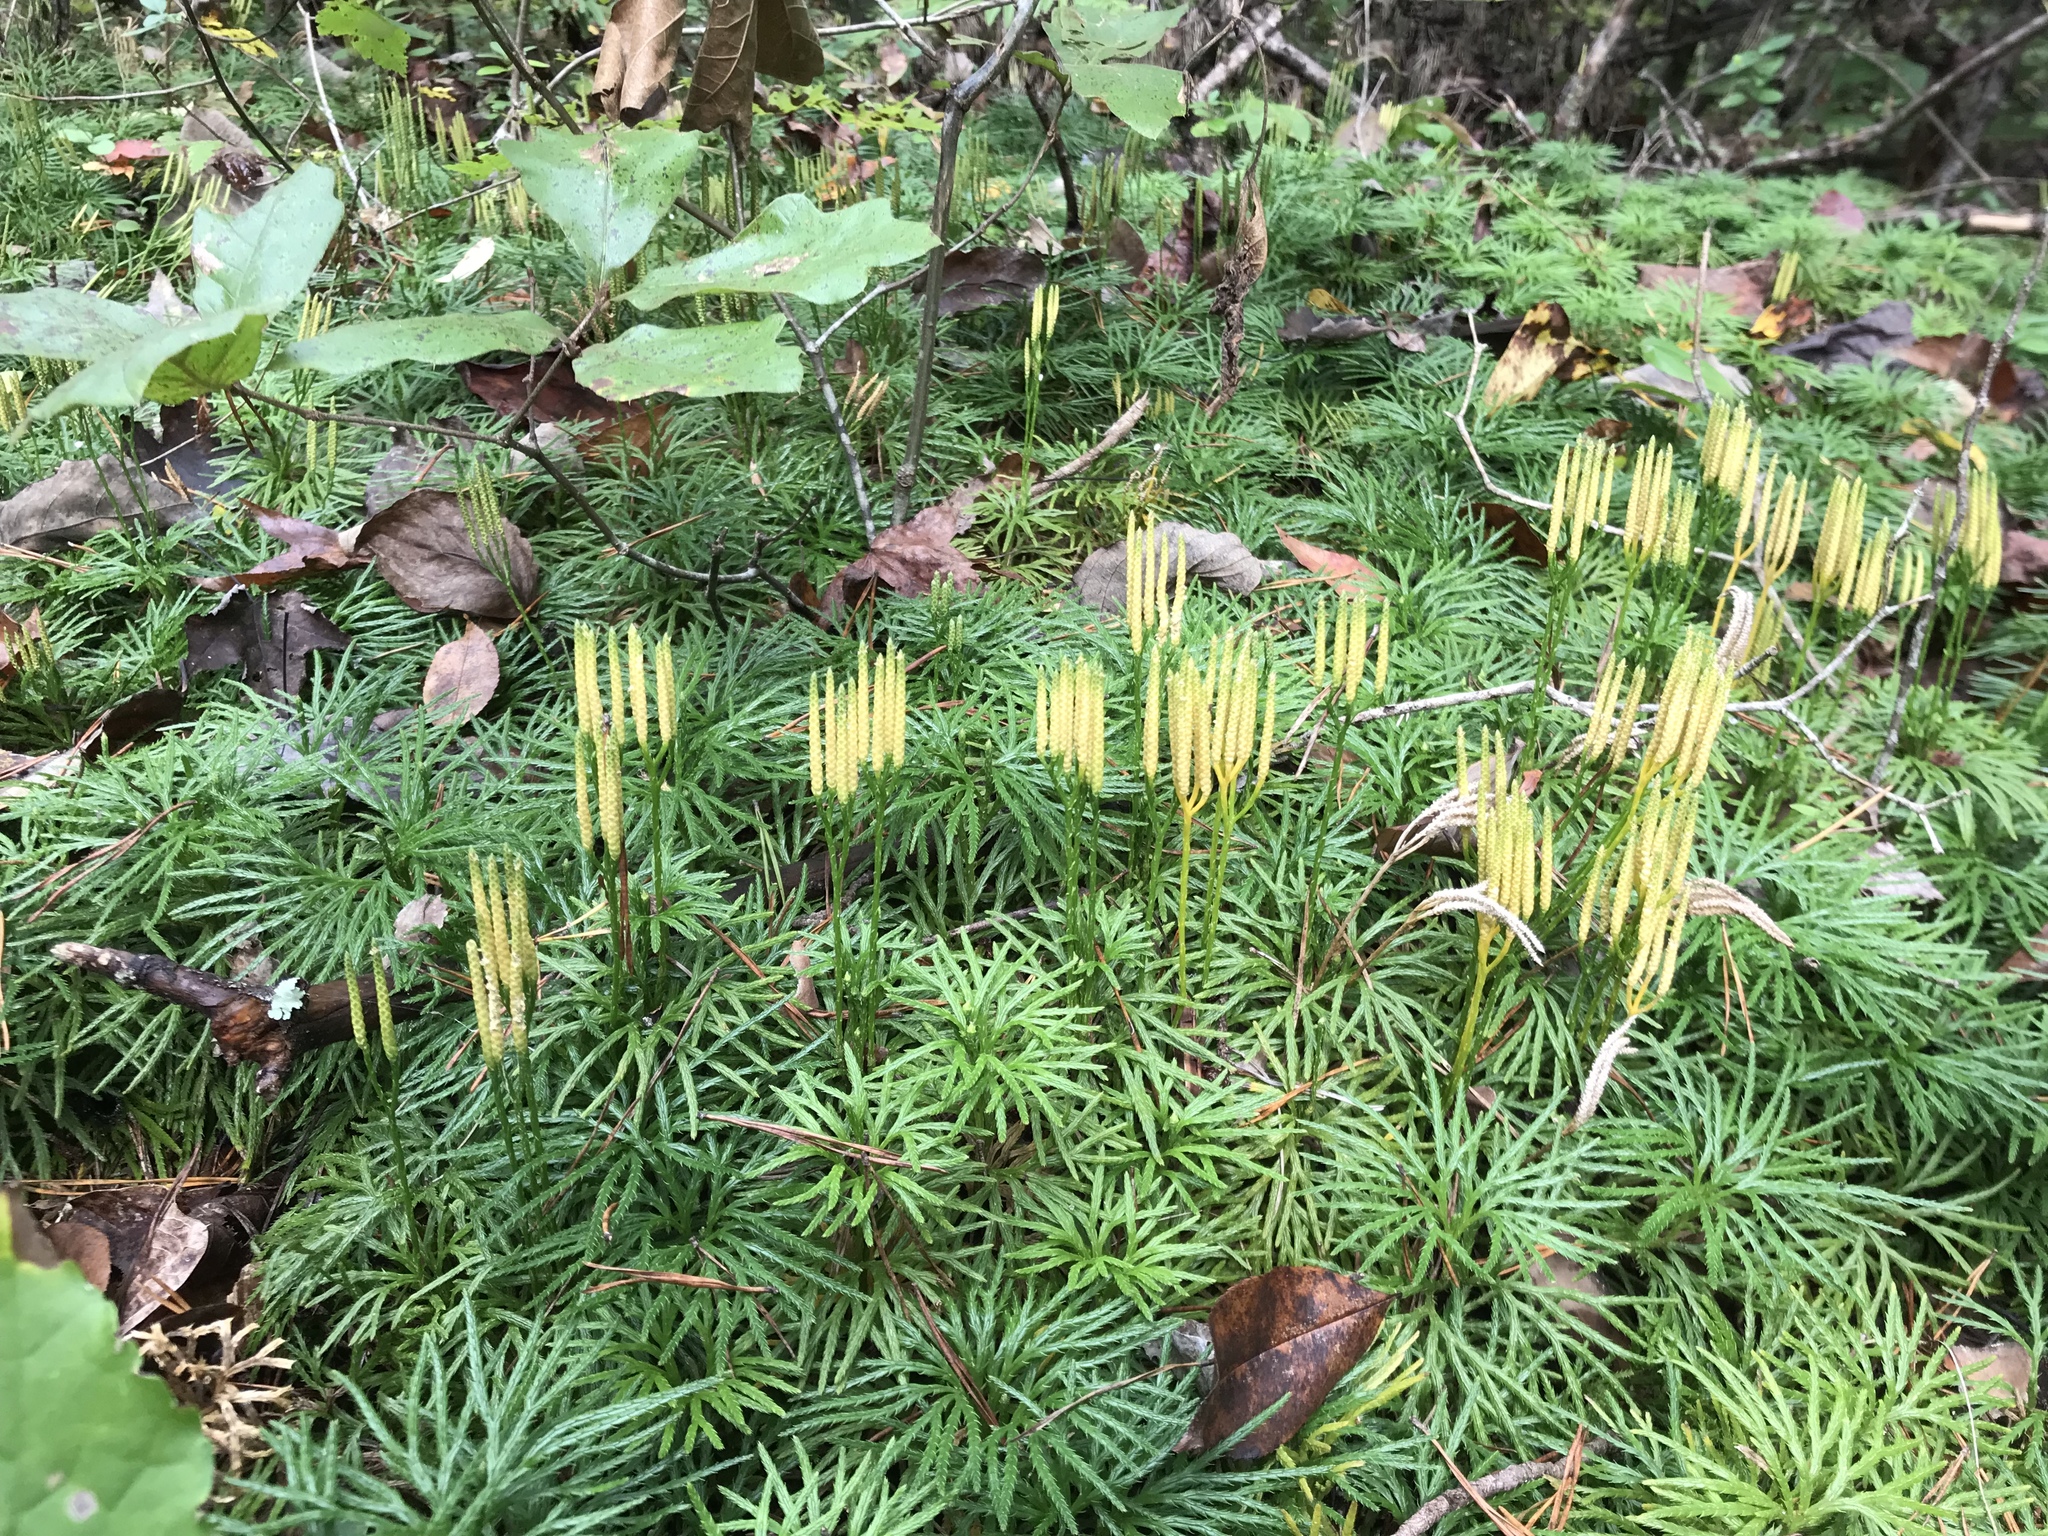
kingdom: Plantae
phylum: Tracheophyta
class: Lycopodiopsida
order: Lycopodiales
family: Lycopodiaceae
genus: Diphasiastrum
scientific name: Diphasiastrum digitatum
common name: Southern running-pine
